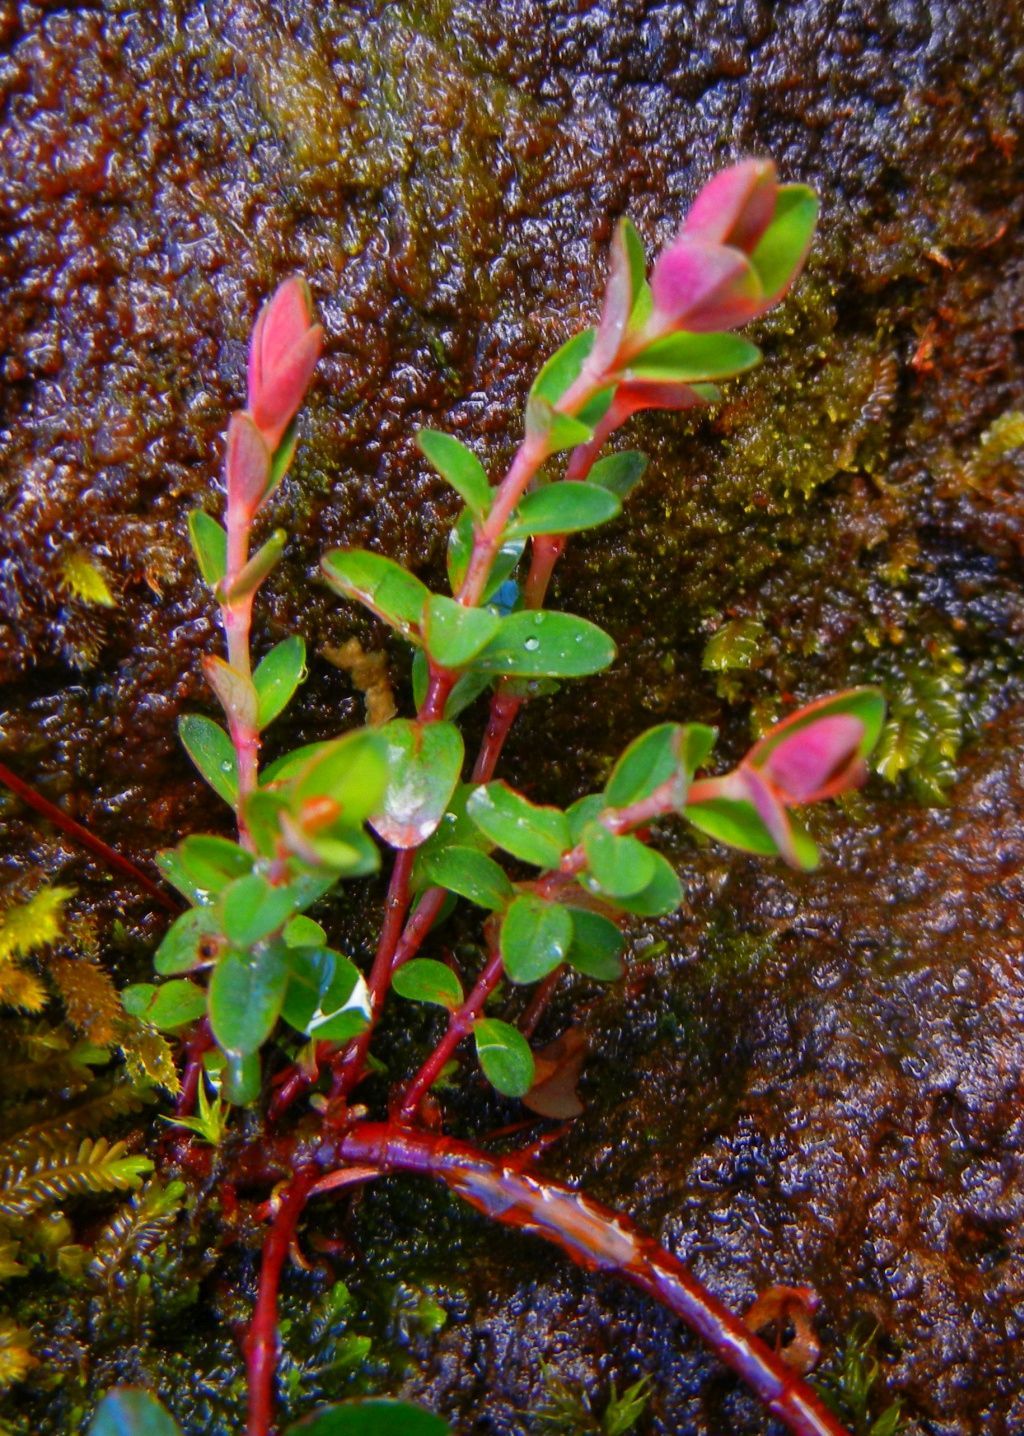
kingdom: Plantae
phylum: Tracheophyta
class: Magnoliopsida
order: Malpighiales
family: Hypericaceae
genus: Hypericum
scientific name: Hypericum pulchrum
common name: Slender st. john's-wort
